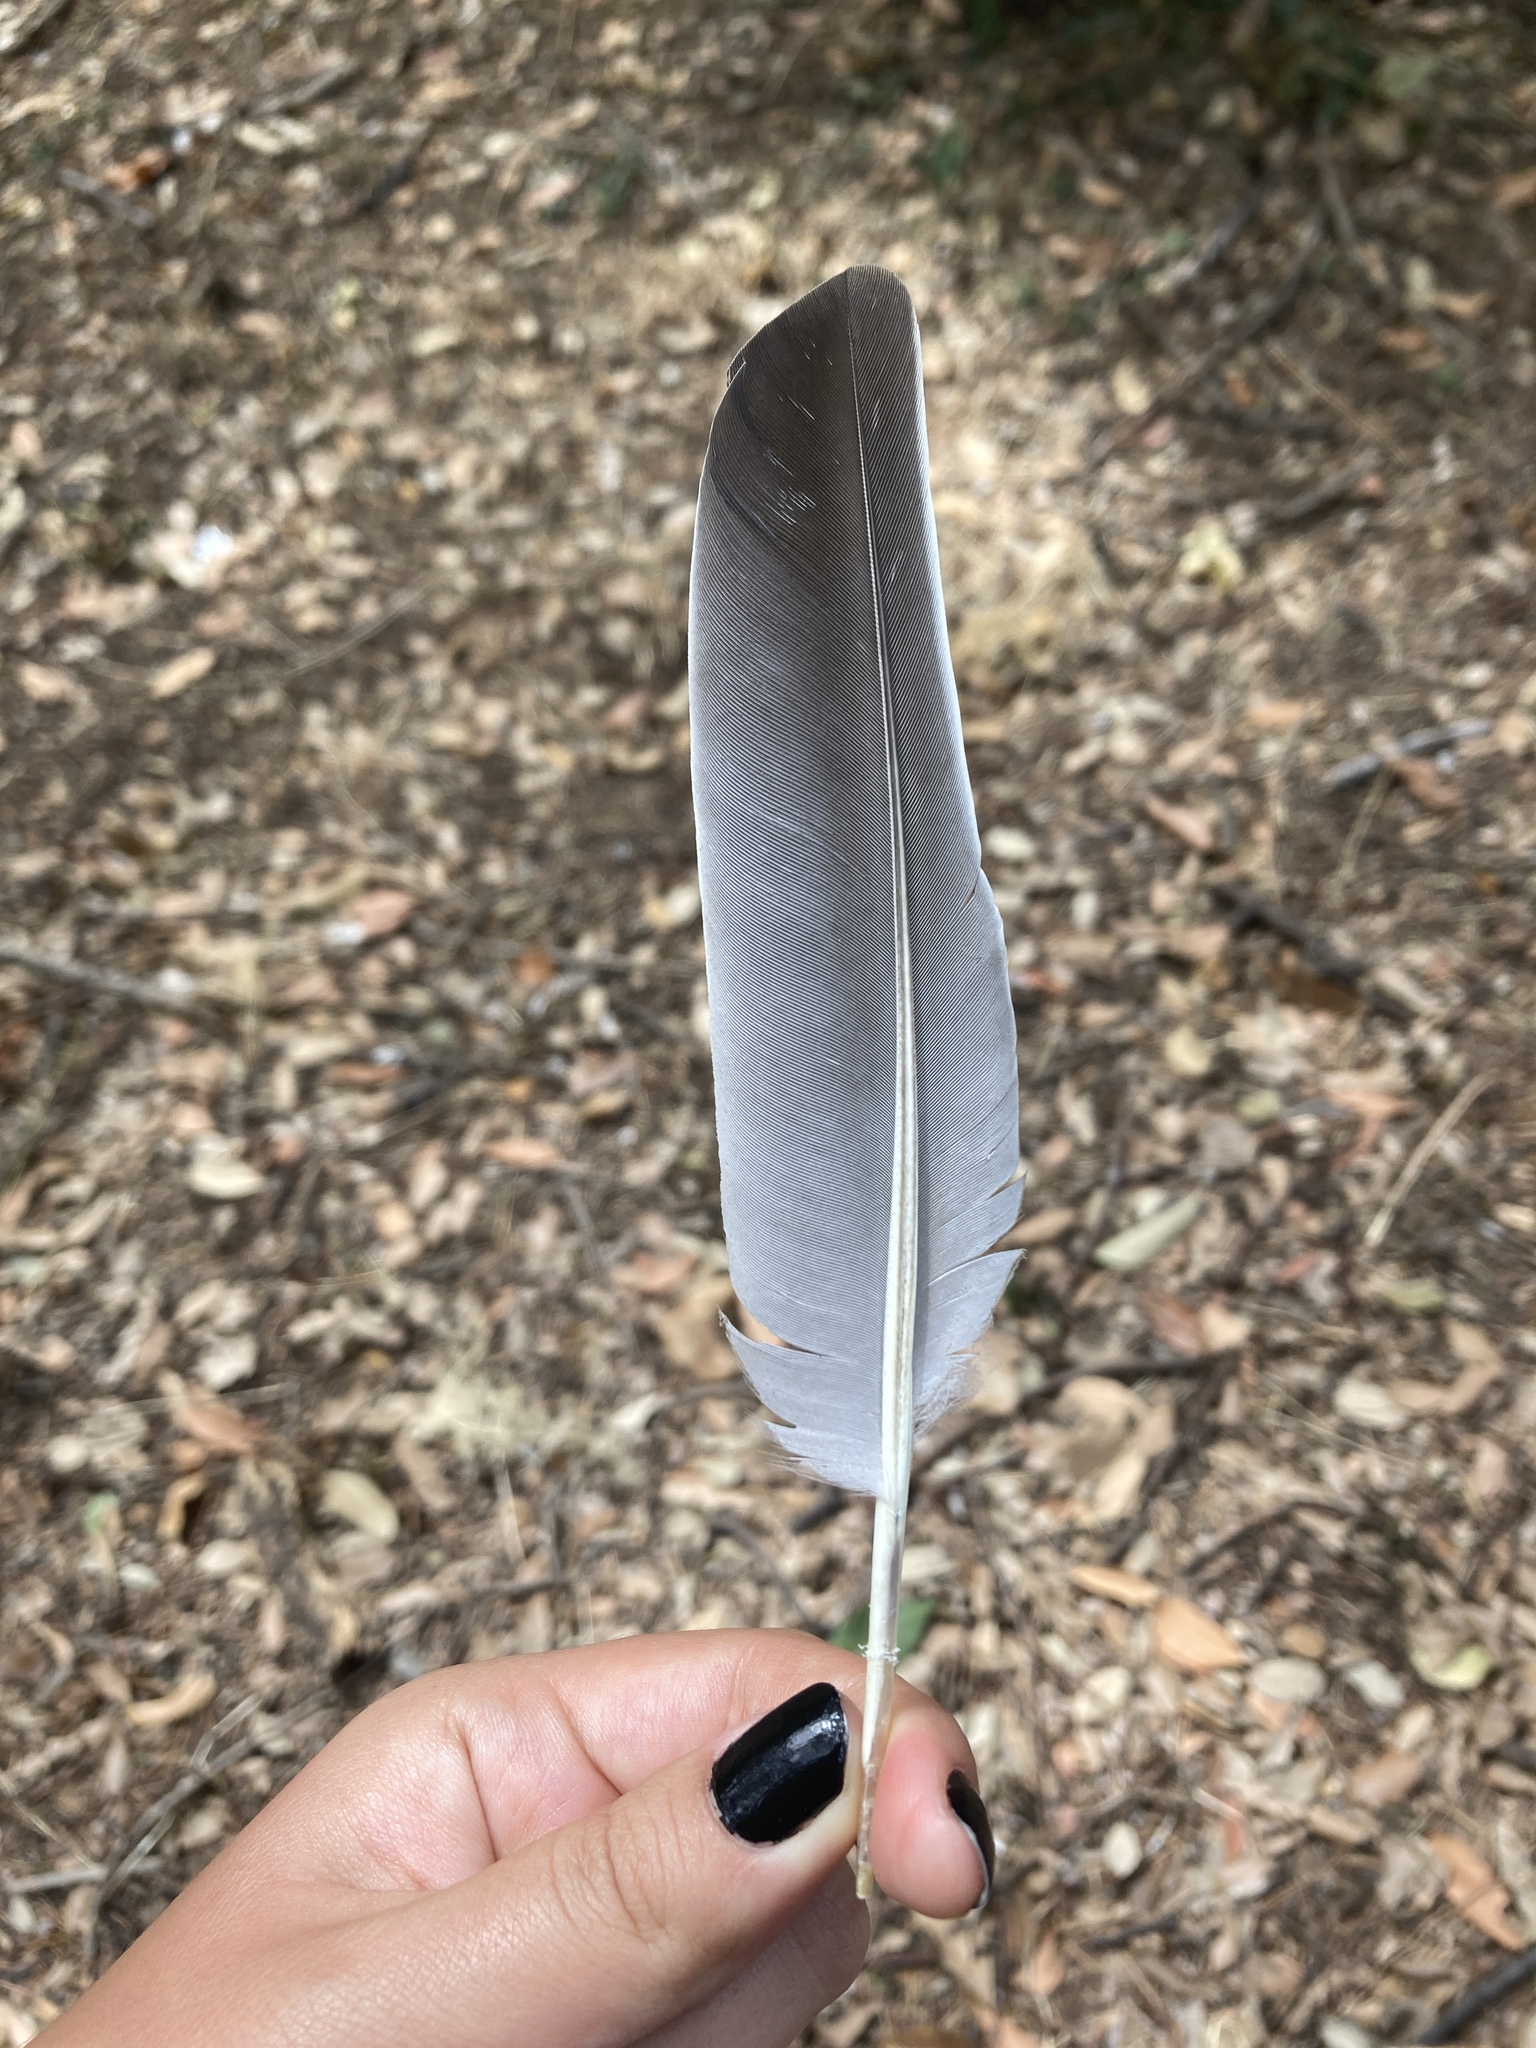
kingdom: Animalia
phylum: Chordata
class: Aves
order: Columbiformes
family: Columbidae
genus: Columba
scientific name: Columba palumbus
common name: Common wood pigeon
